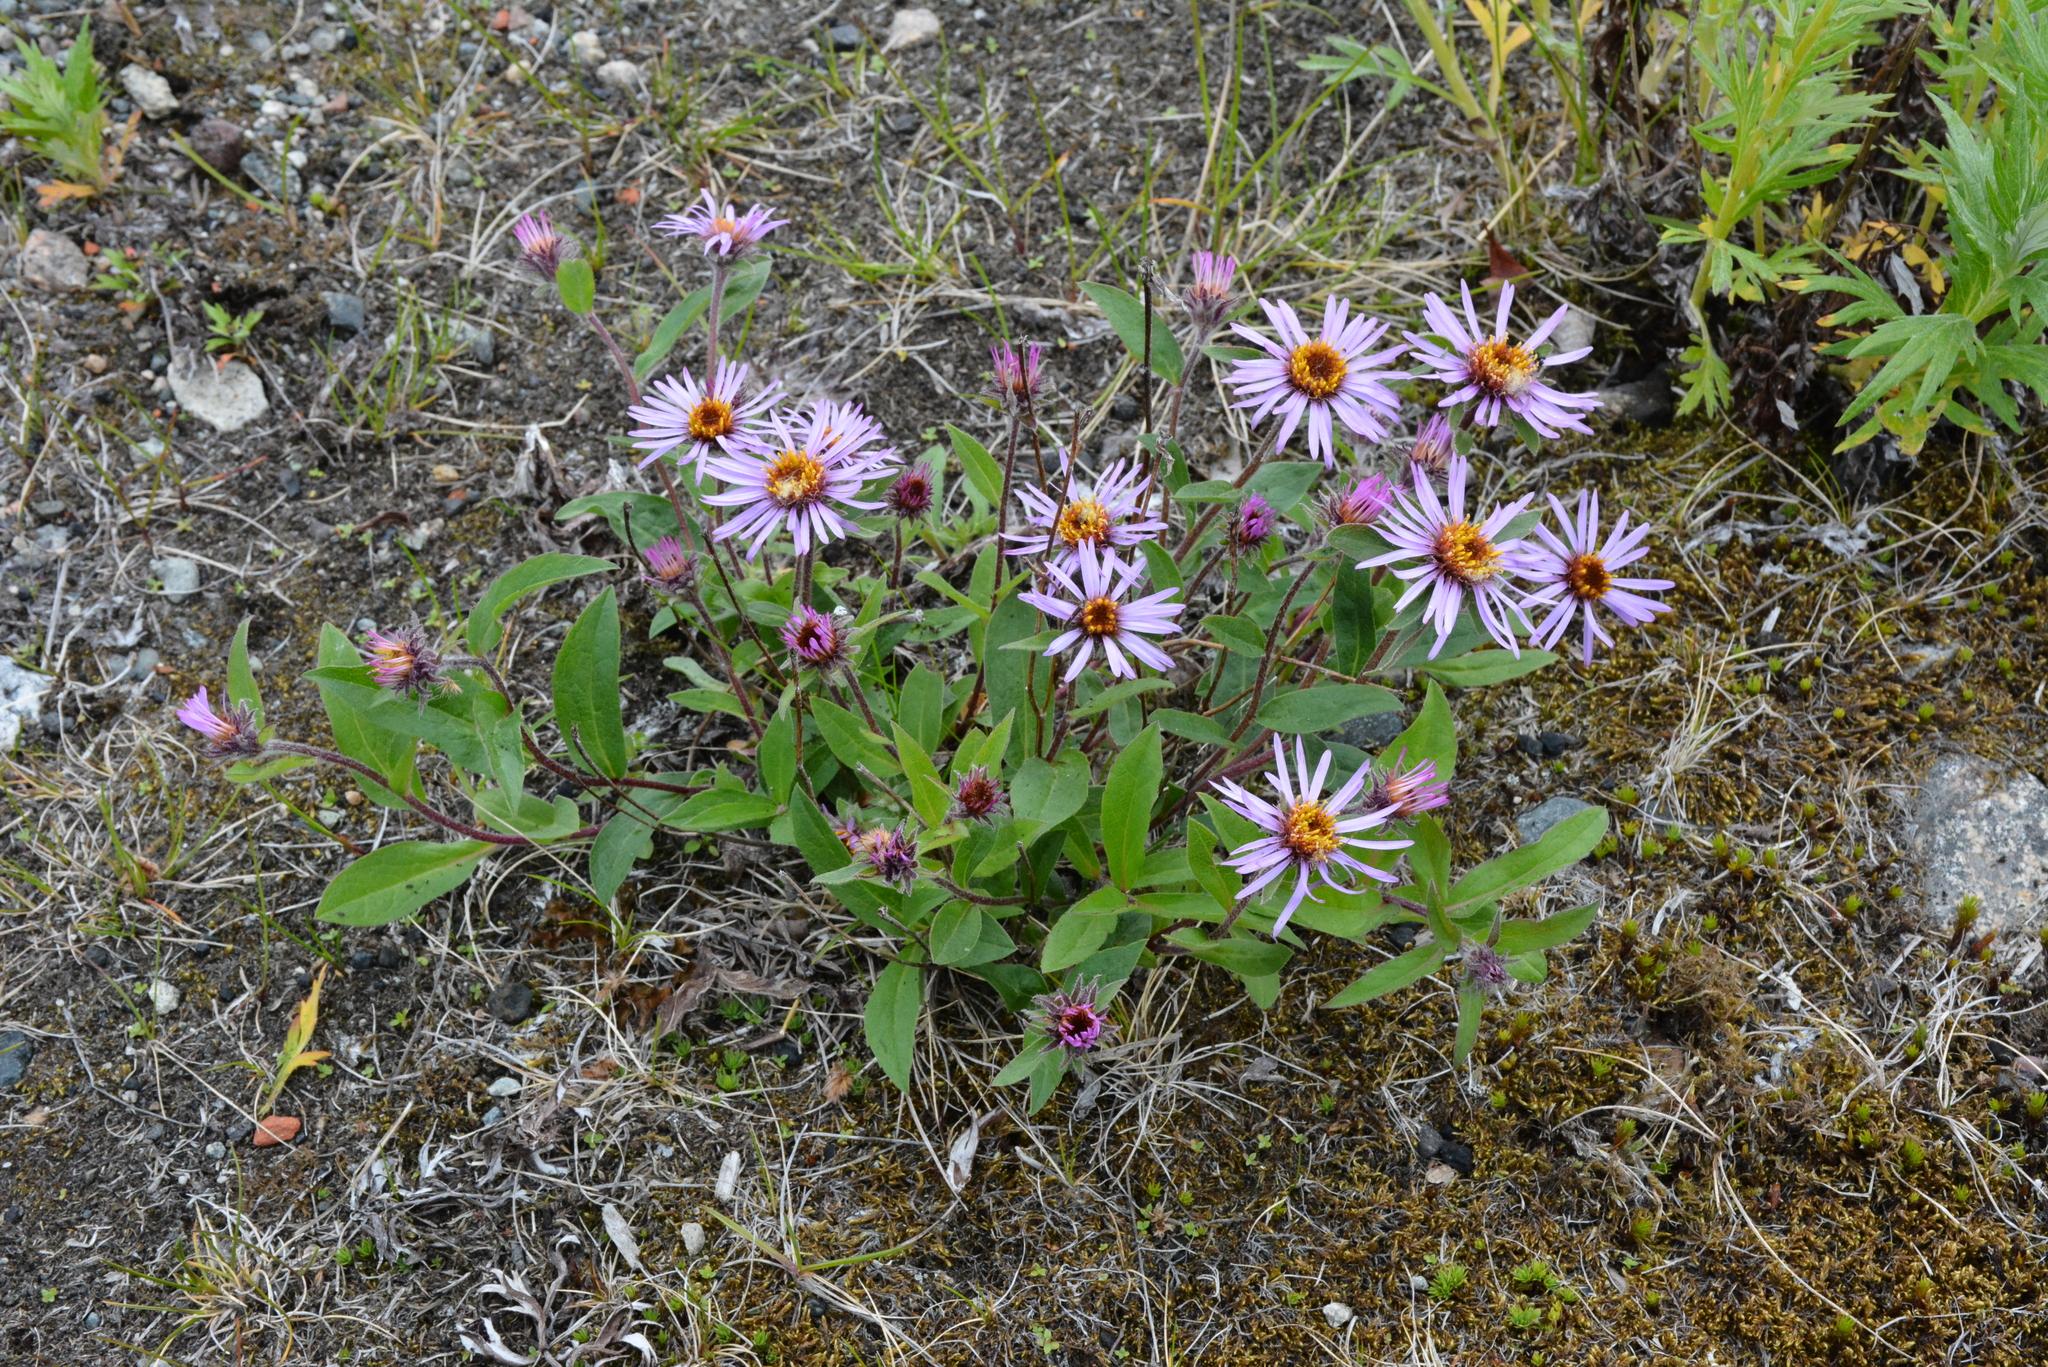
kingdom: Plantae
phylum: Tracheophyta
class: Magnoliopsida
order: Asterales
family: Asteraceae
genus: Eurybia
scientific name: Eurybia sibirica
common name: Arctic aster
